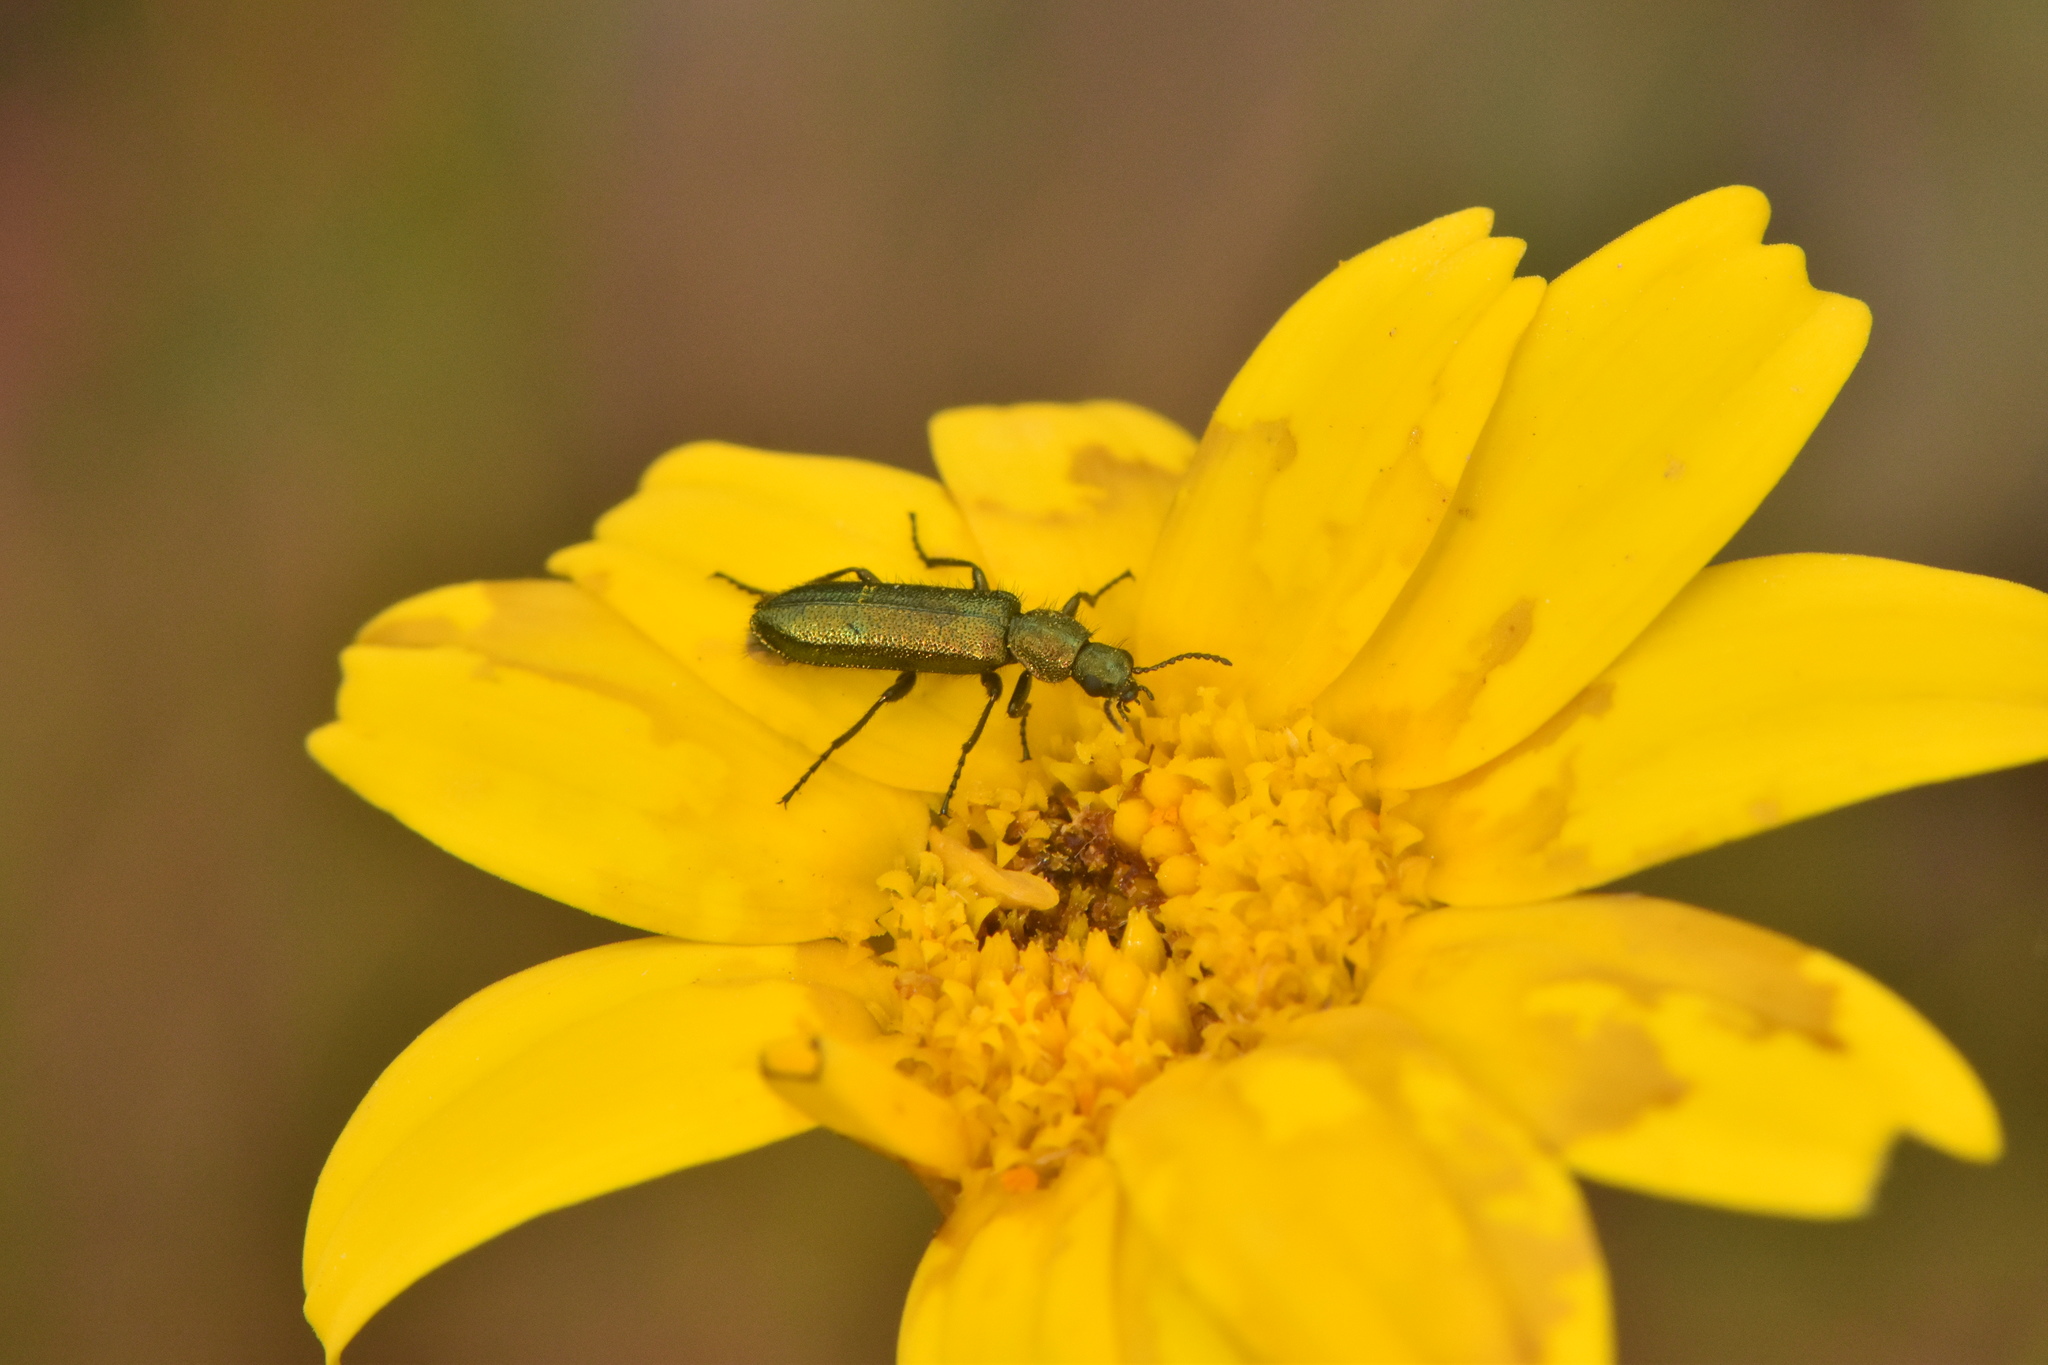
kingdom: Animalia
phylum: Arthropoda
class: Insecta
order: Coleoptera
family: Dasytidae
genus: Psilothrix
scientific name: Psilothrix viridicoerulea
